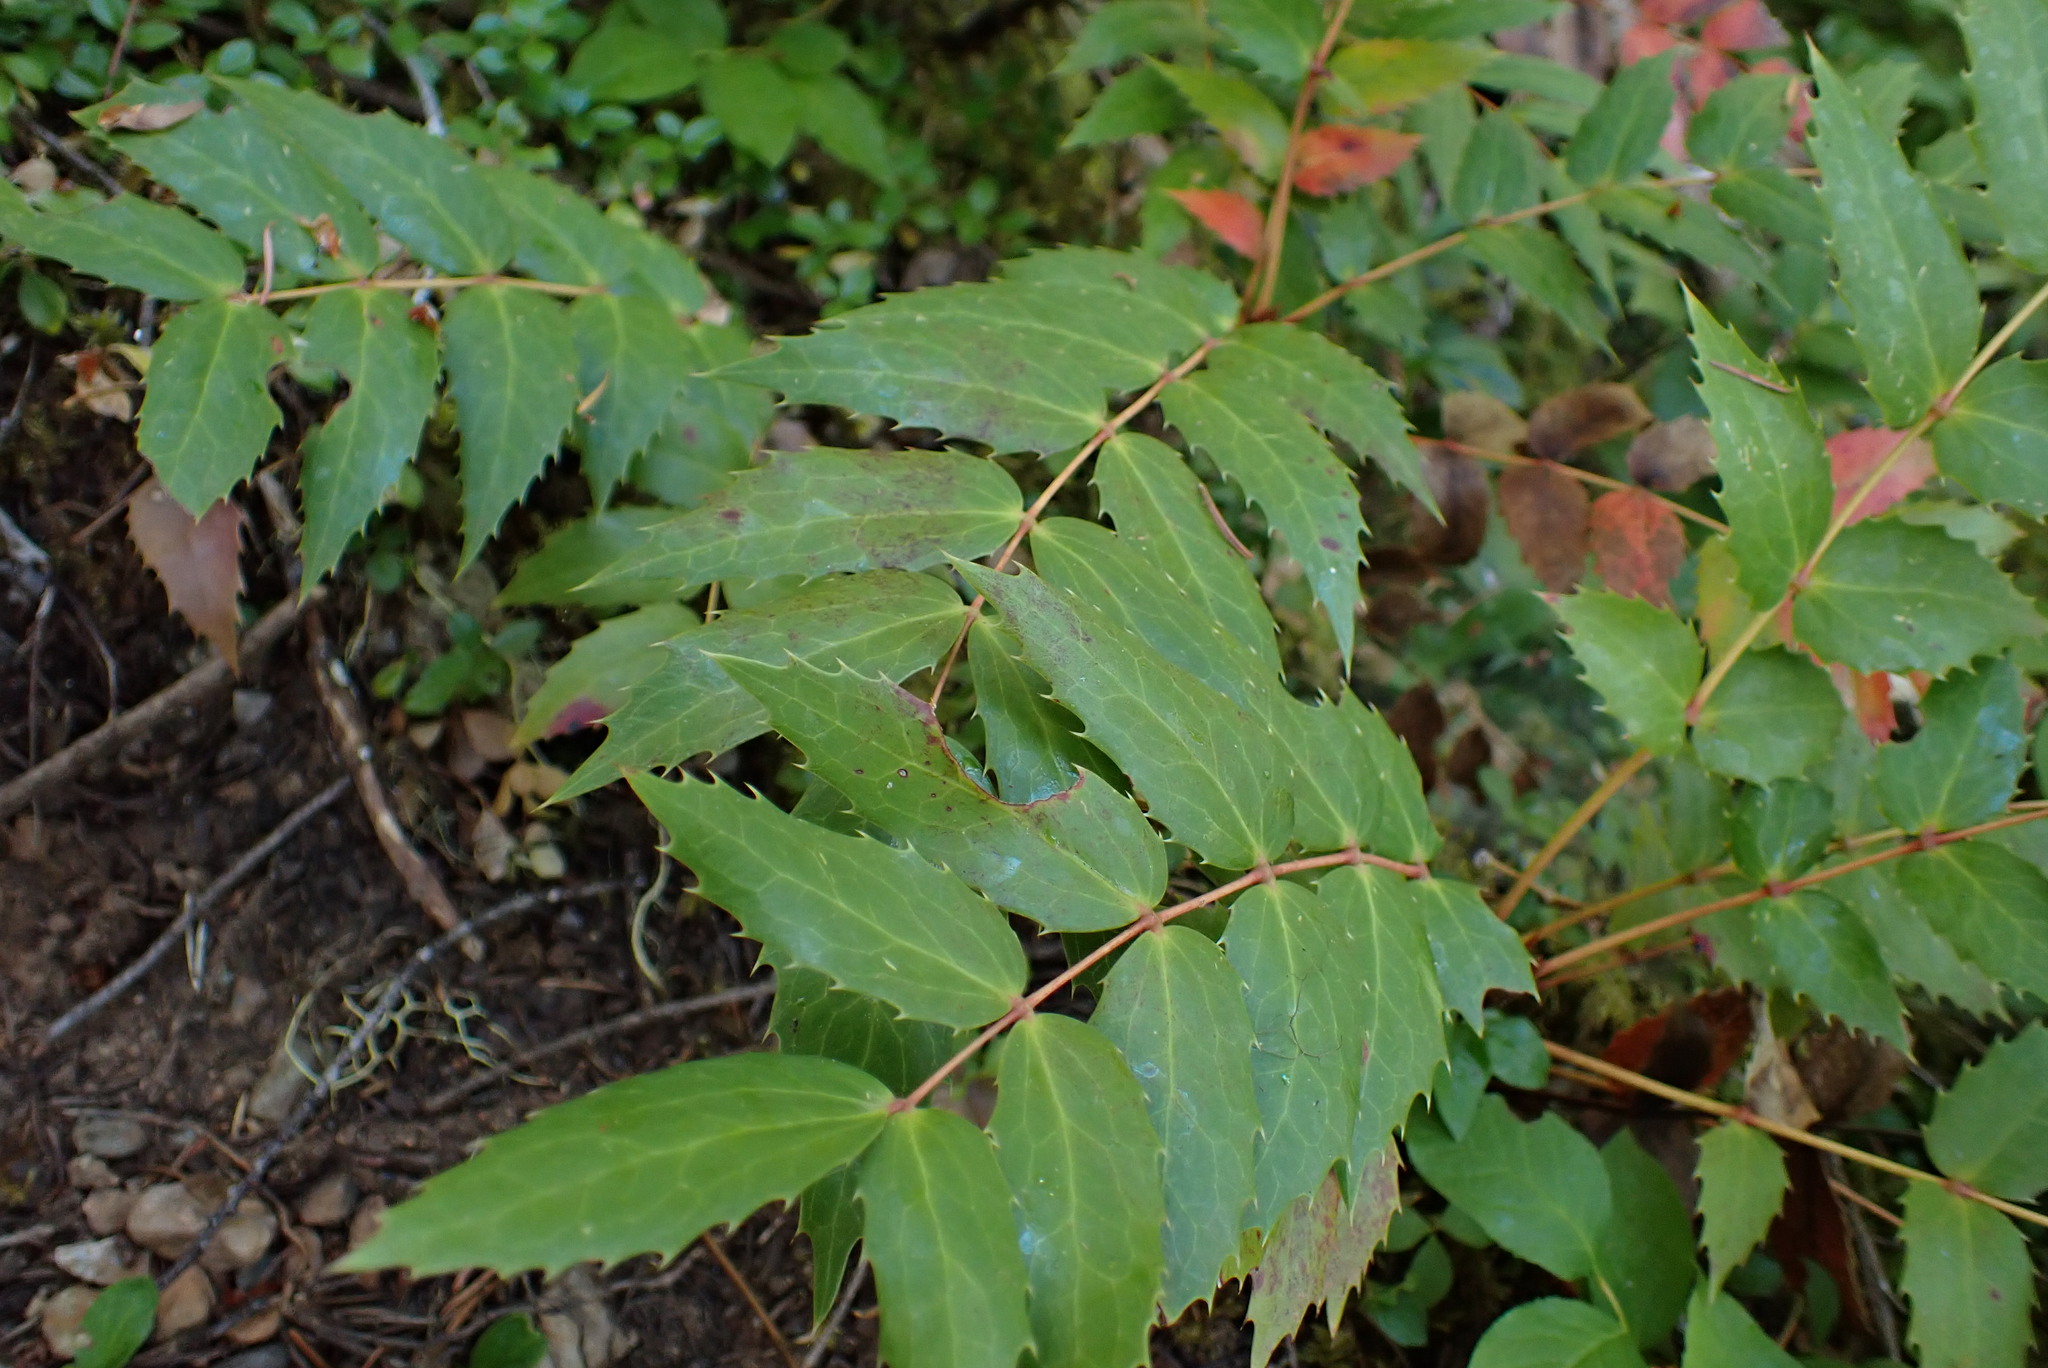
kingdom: Plantae
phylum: Tracheophyta
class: Magnoliopsida
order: Ranunculales
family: Berberidaceae
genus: Mahonia
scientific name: Mahonia nervosa
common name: Cascade oregon-grape
